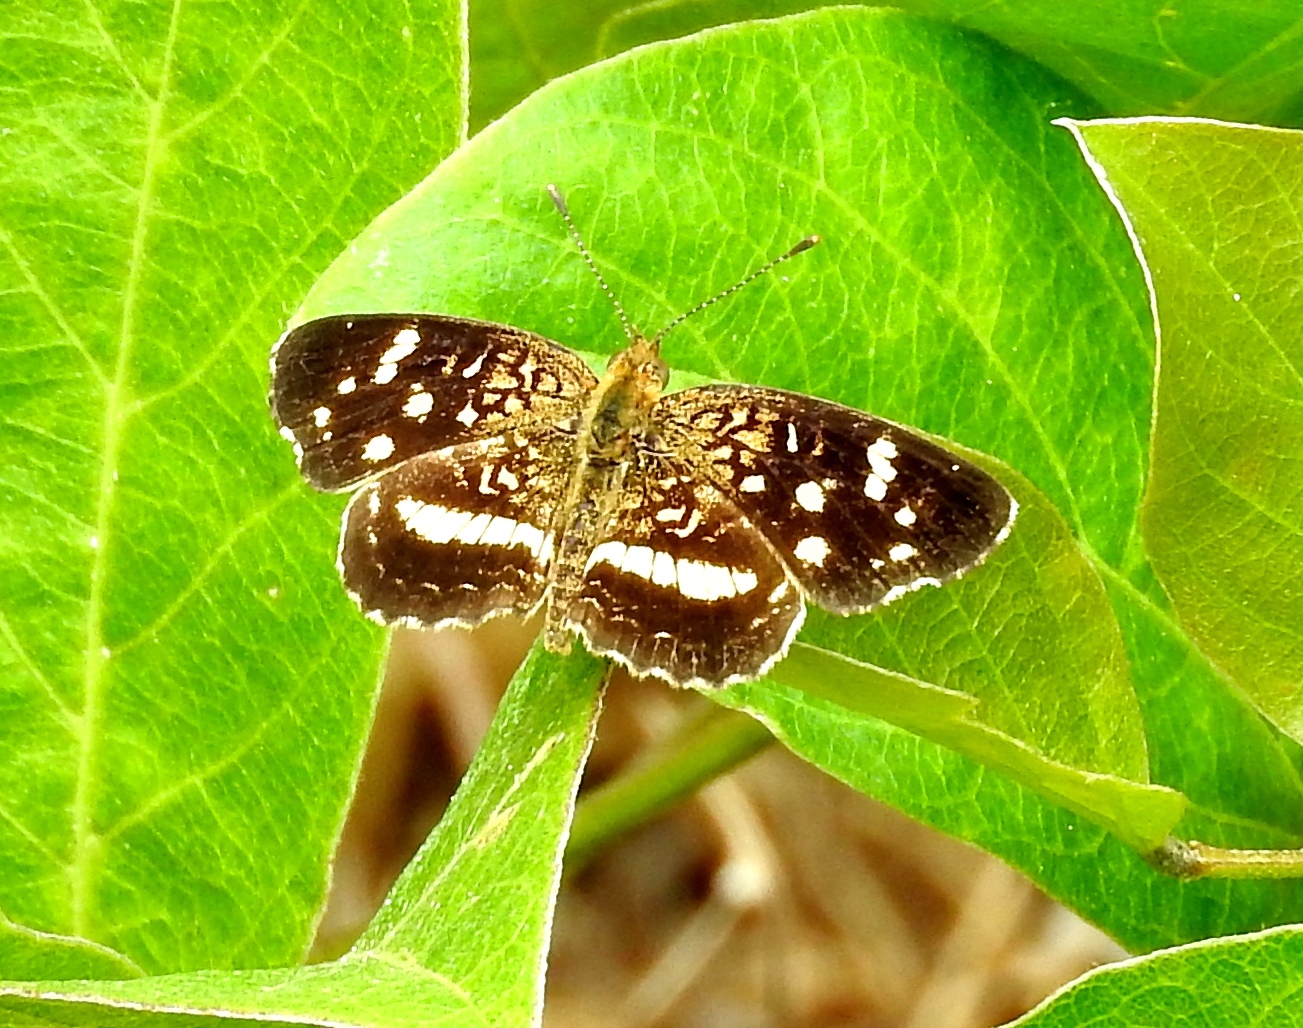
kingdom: Animalia
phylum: Arthropoda
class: Insecta
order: Lepidoptera
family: Nymphalidae
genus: Anthanassa
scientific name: Anthanassa tulcis
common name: Pale-banded crescent
